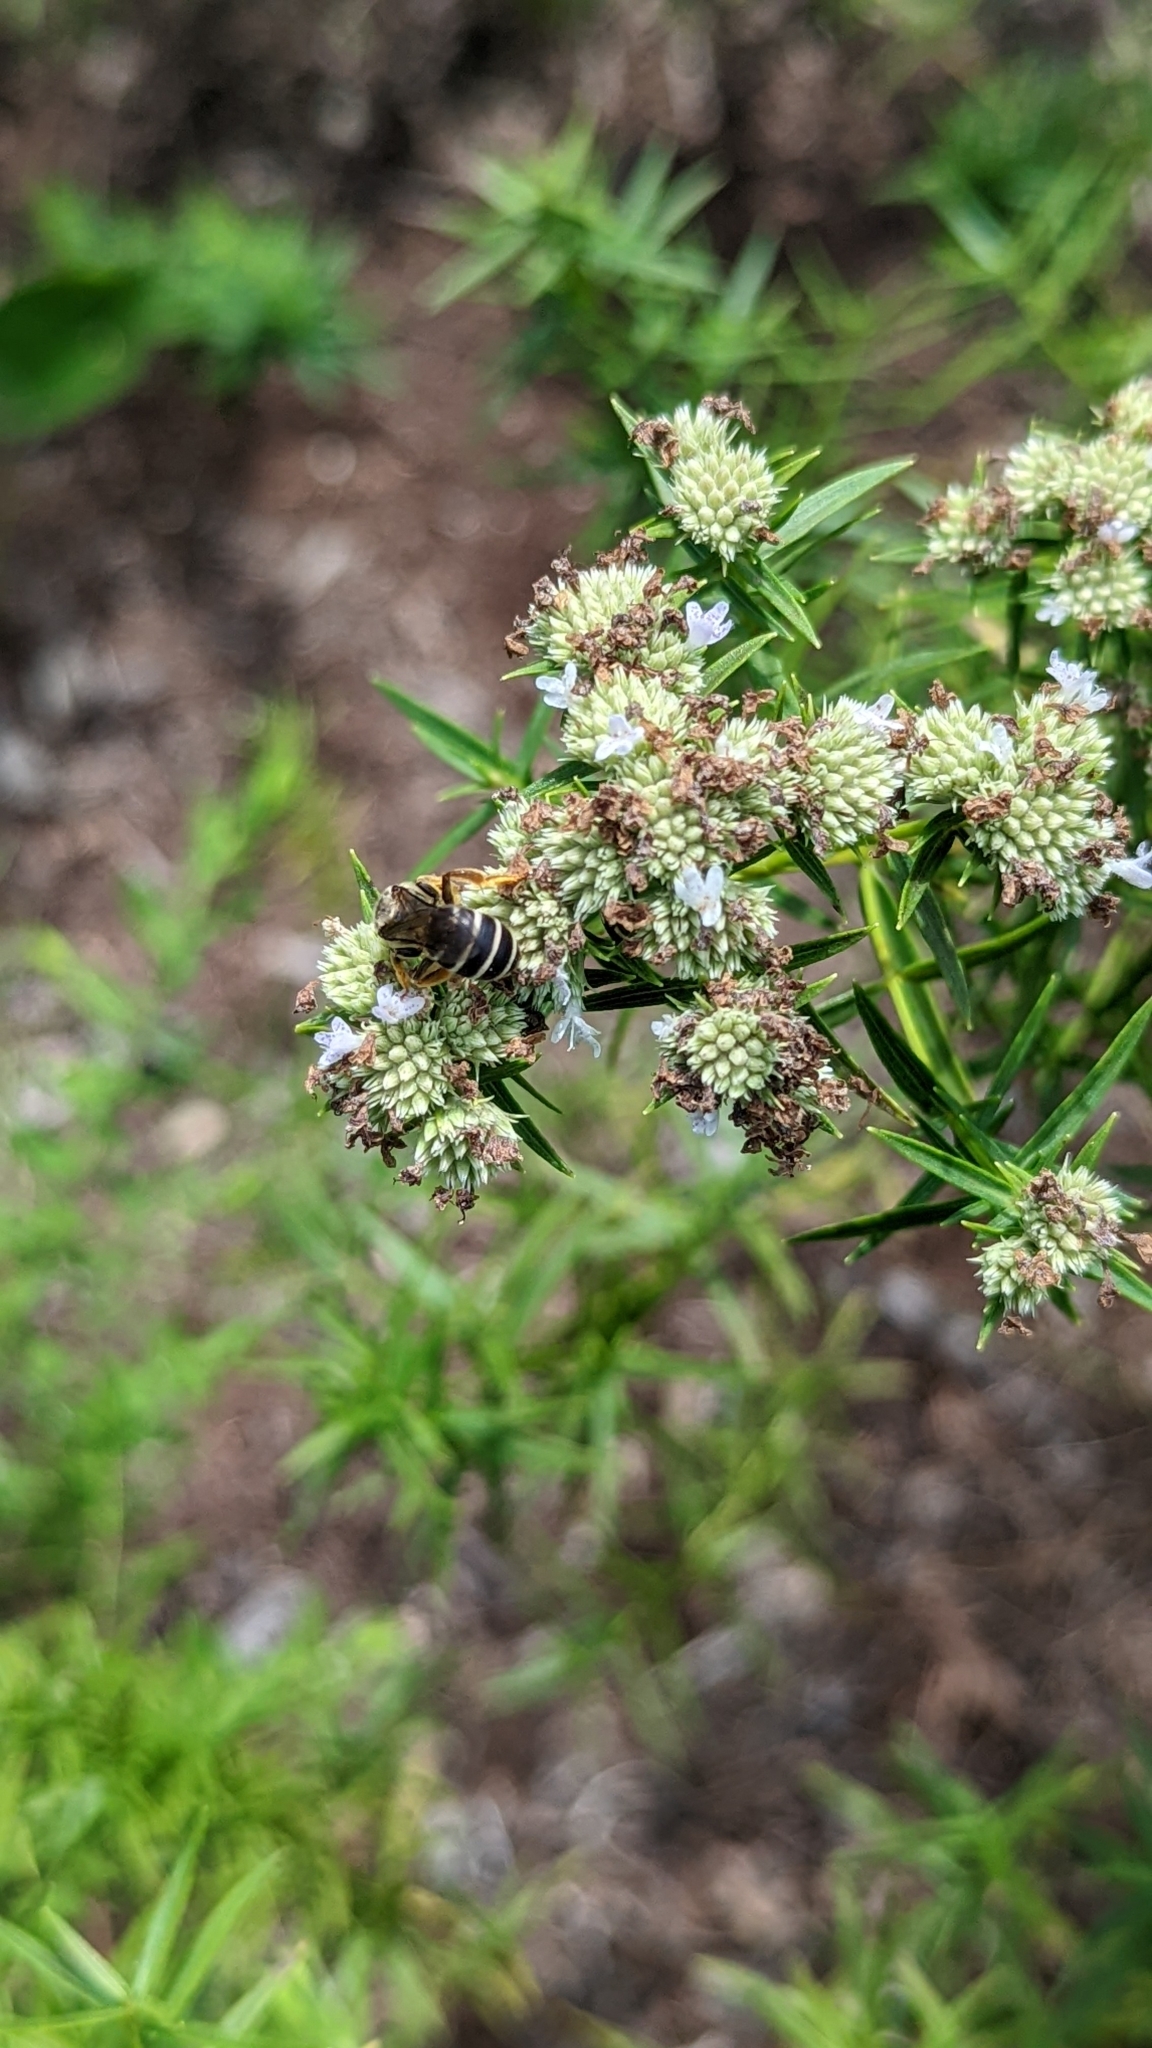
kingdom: Animalia
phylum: Arthropoda
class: Insecta
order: Hymenoptera
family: Halictidae
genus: Halictus
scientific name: Halictus rubicundus
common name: Orange-legged furrow bee
